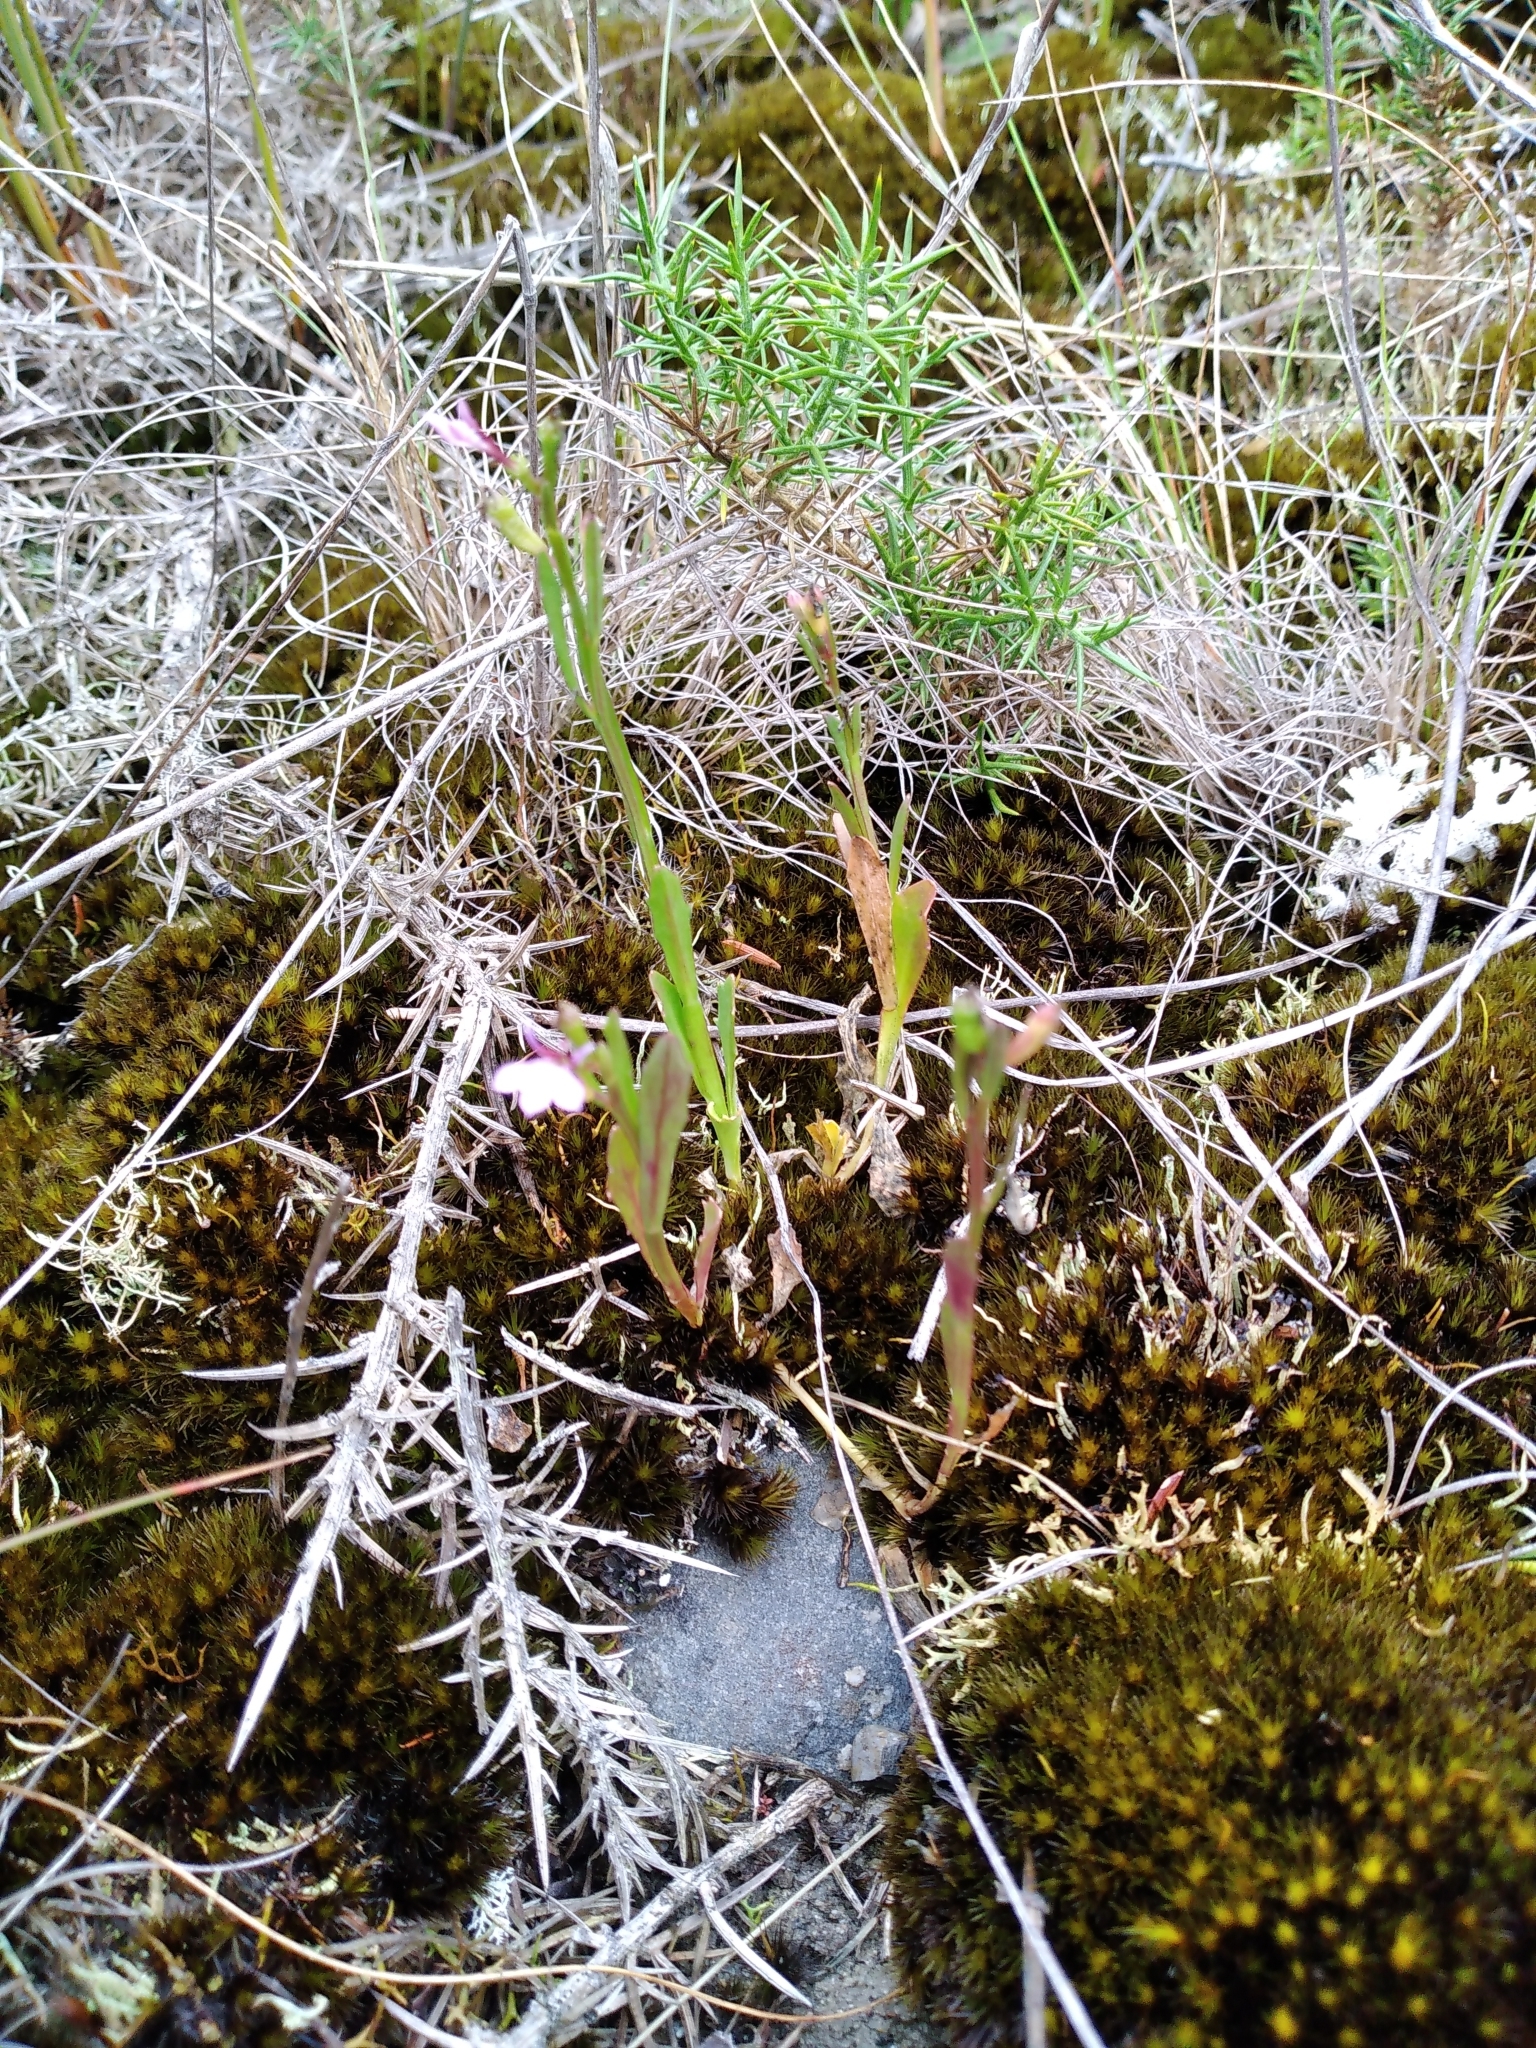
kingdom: Plantae
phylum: Tracheophyta
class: Magnoliopsida
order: Asterales
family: Campanulaceae
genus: Lobelia
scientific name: Lobelia anceps
